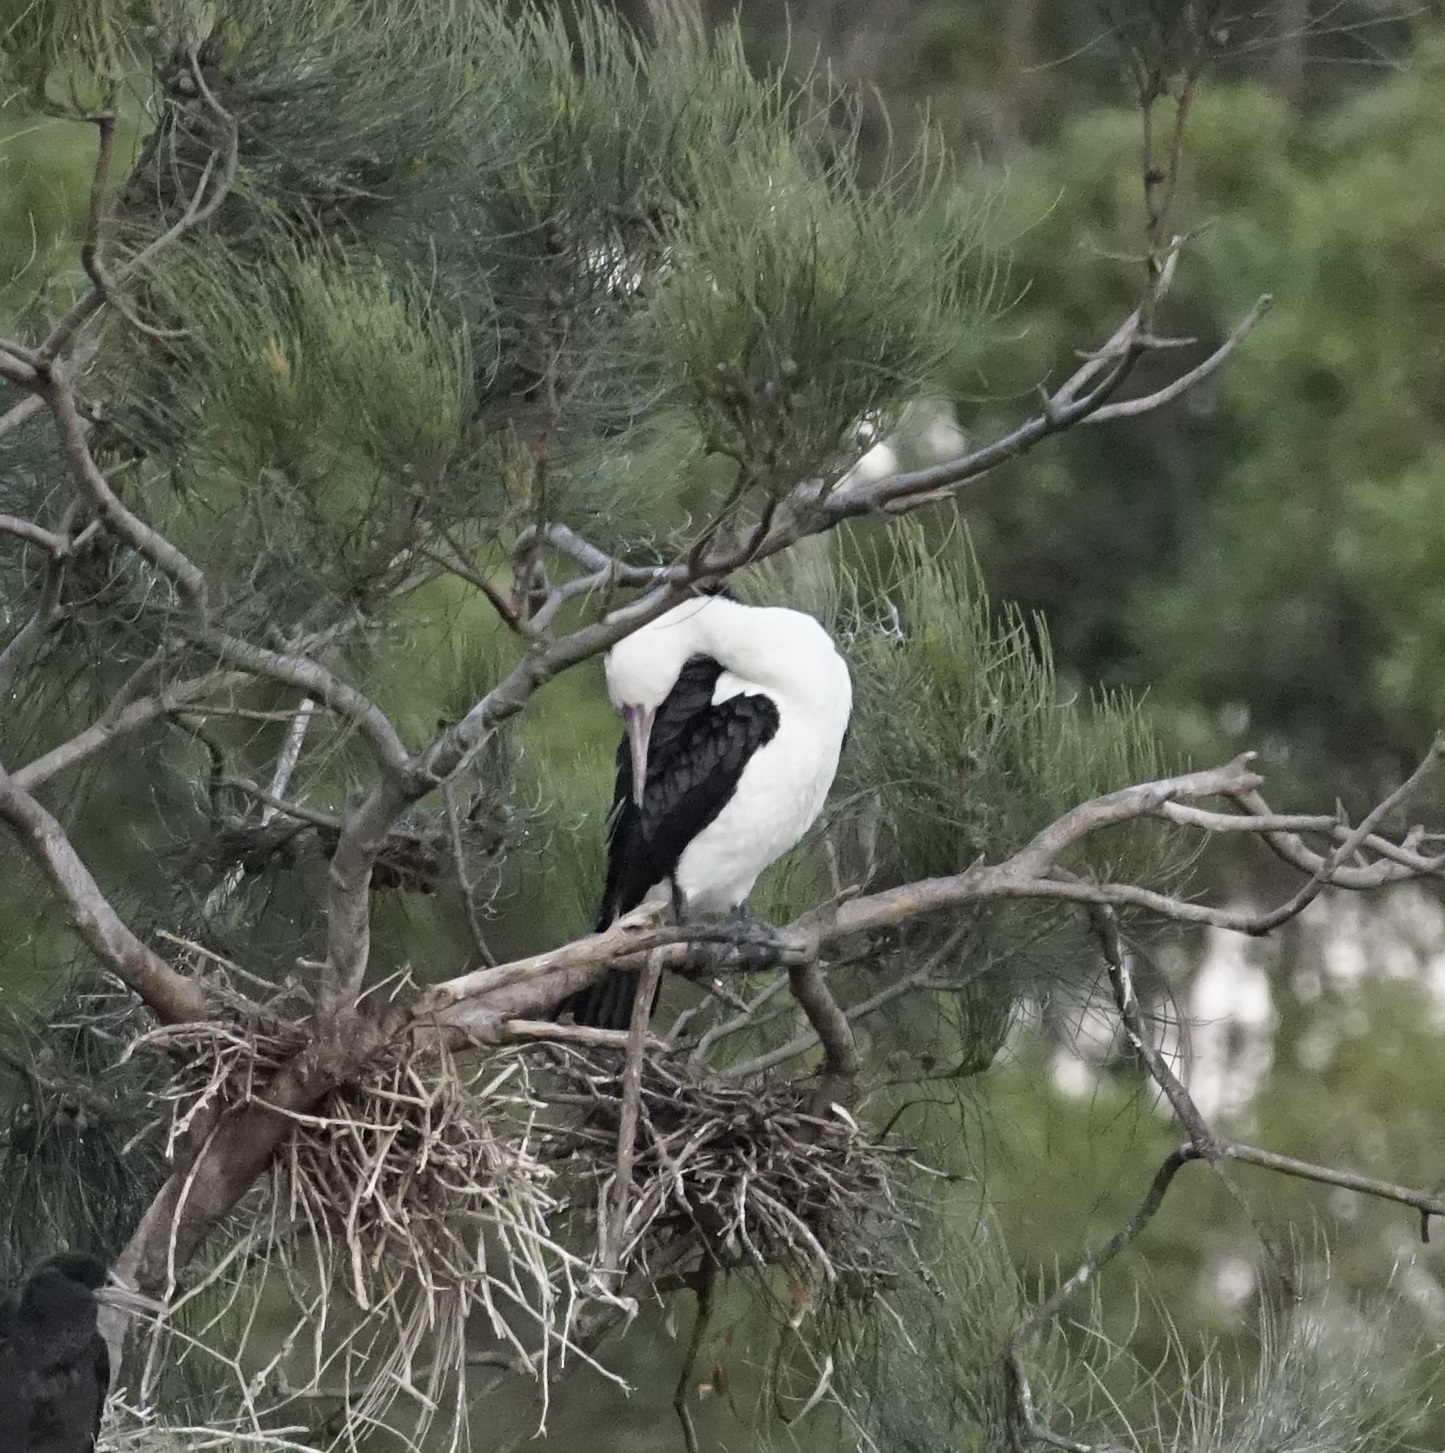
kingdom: Animalia
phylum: Chordata
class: Aves
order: Suliformes
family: Phalacrocoracidae
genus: Phalacrocorax
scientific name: Phalacrocorax varius
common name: Pied cormorant
